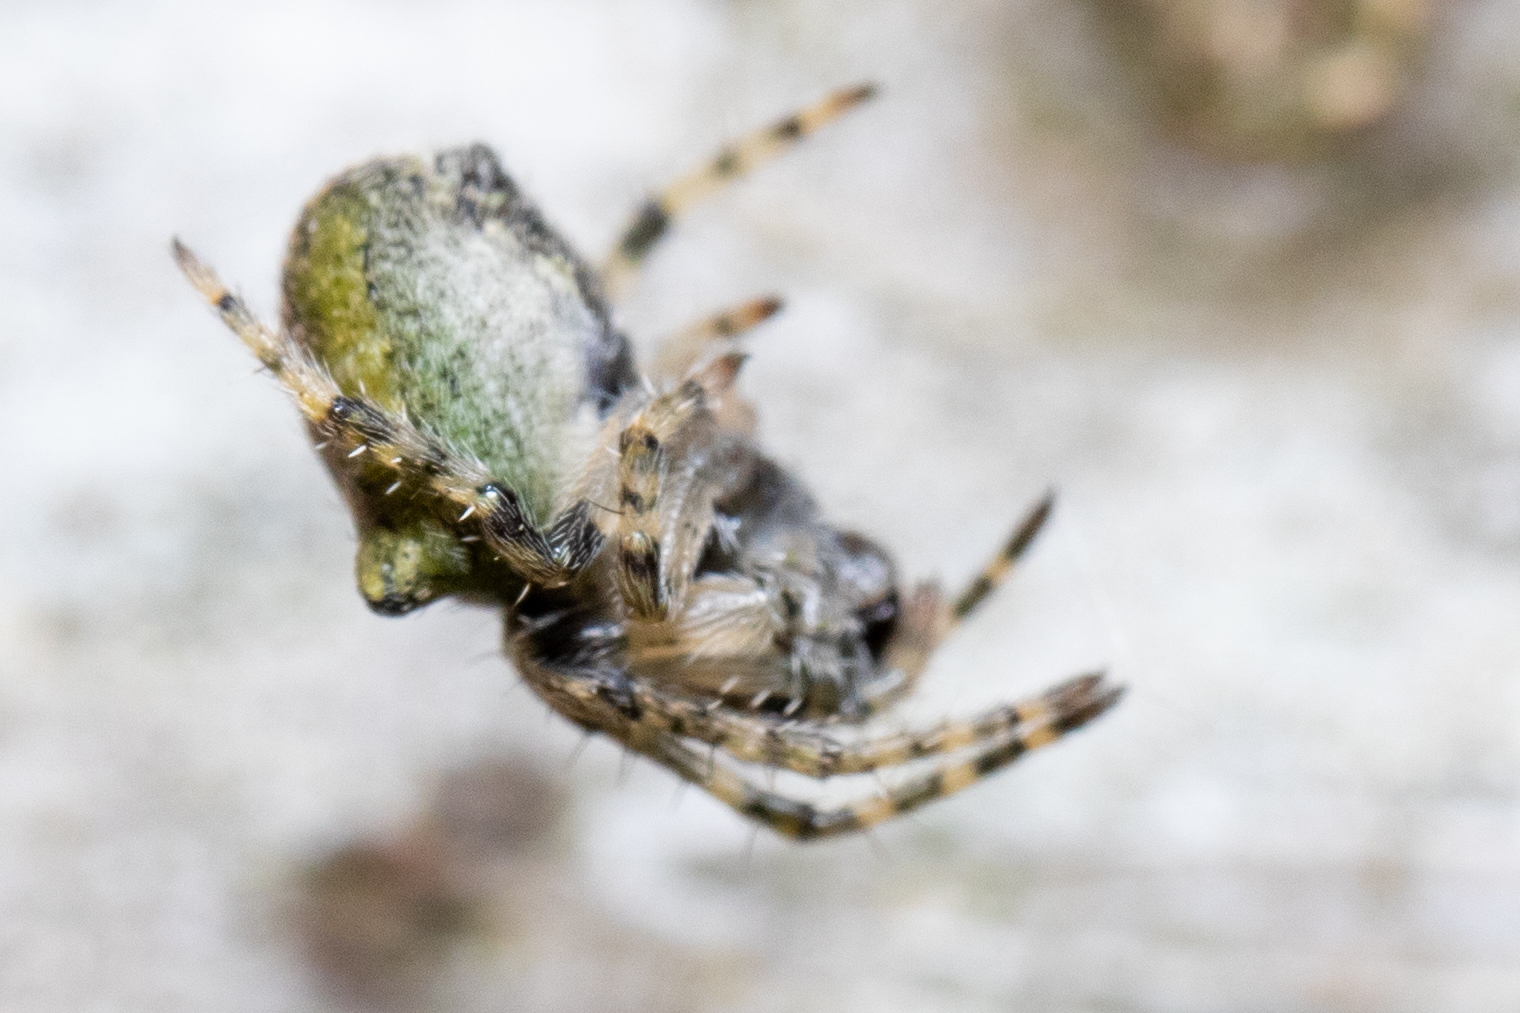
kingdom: Animalia
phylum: Arthropoda
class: Arachnida
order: Araneae
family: Araneidae
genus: Gibbaranea
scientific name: Gibbaranea gibbosa
